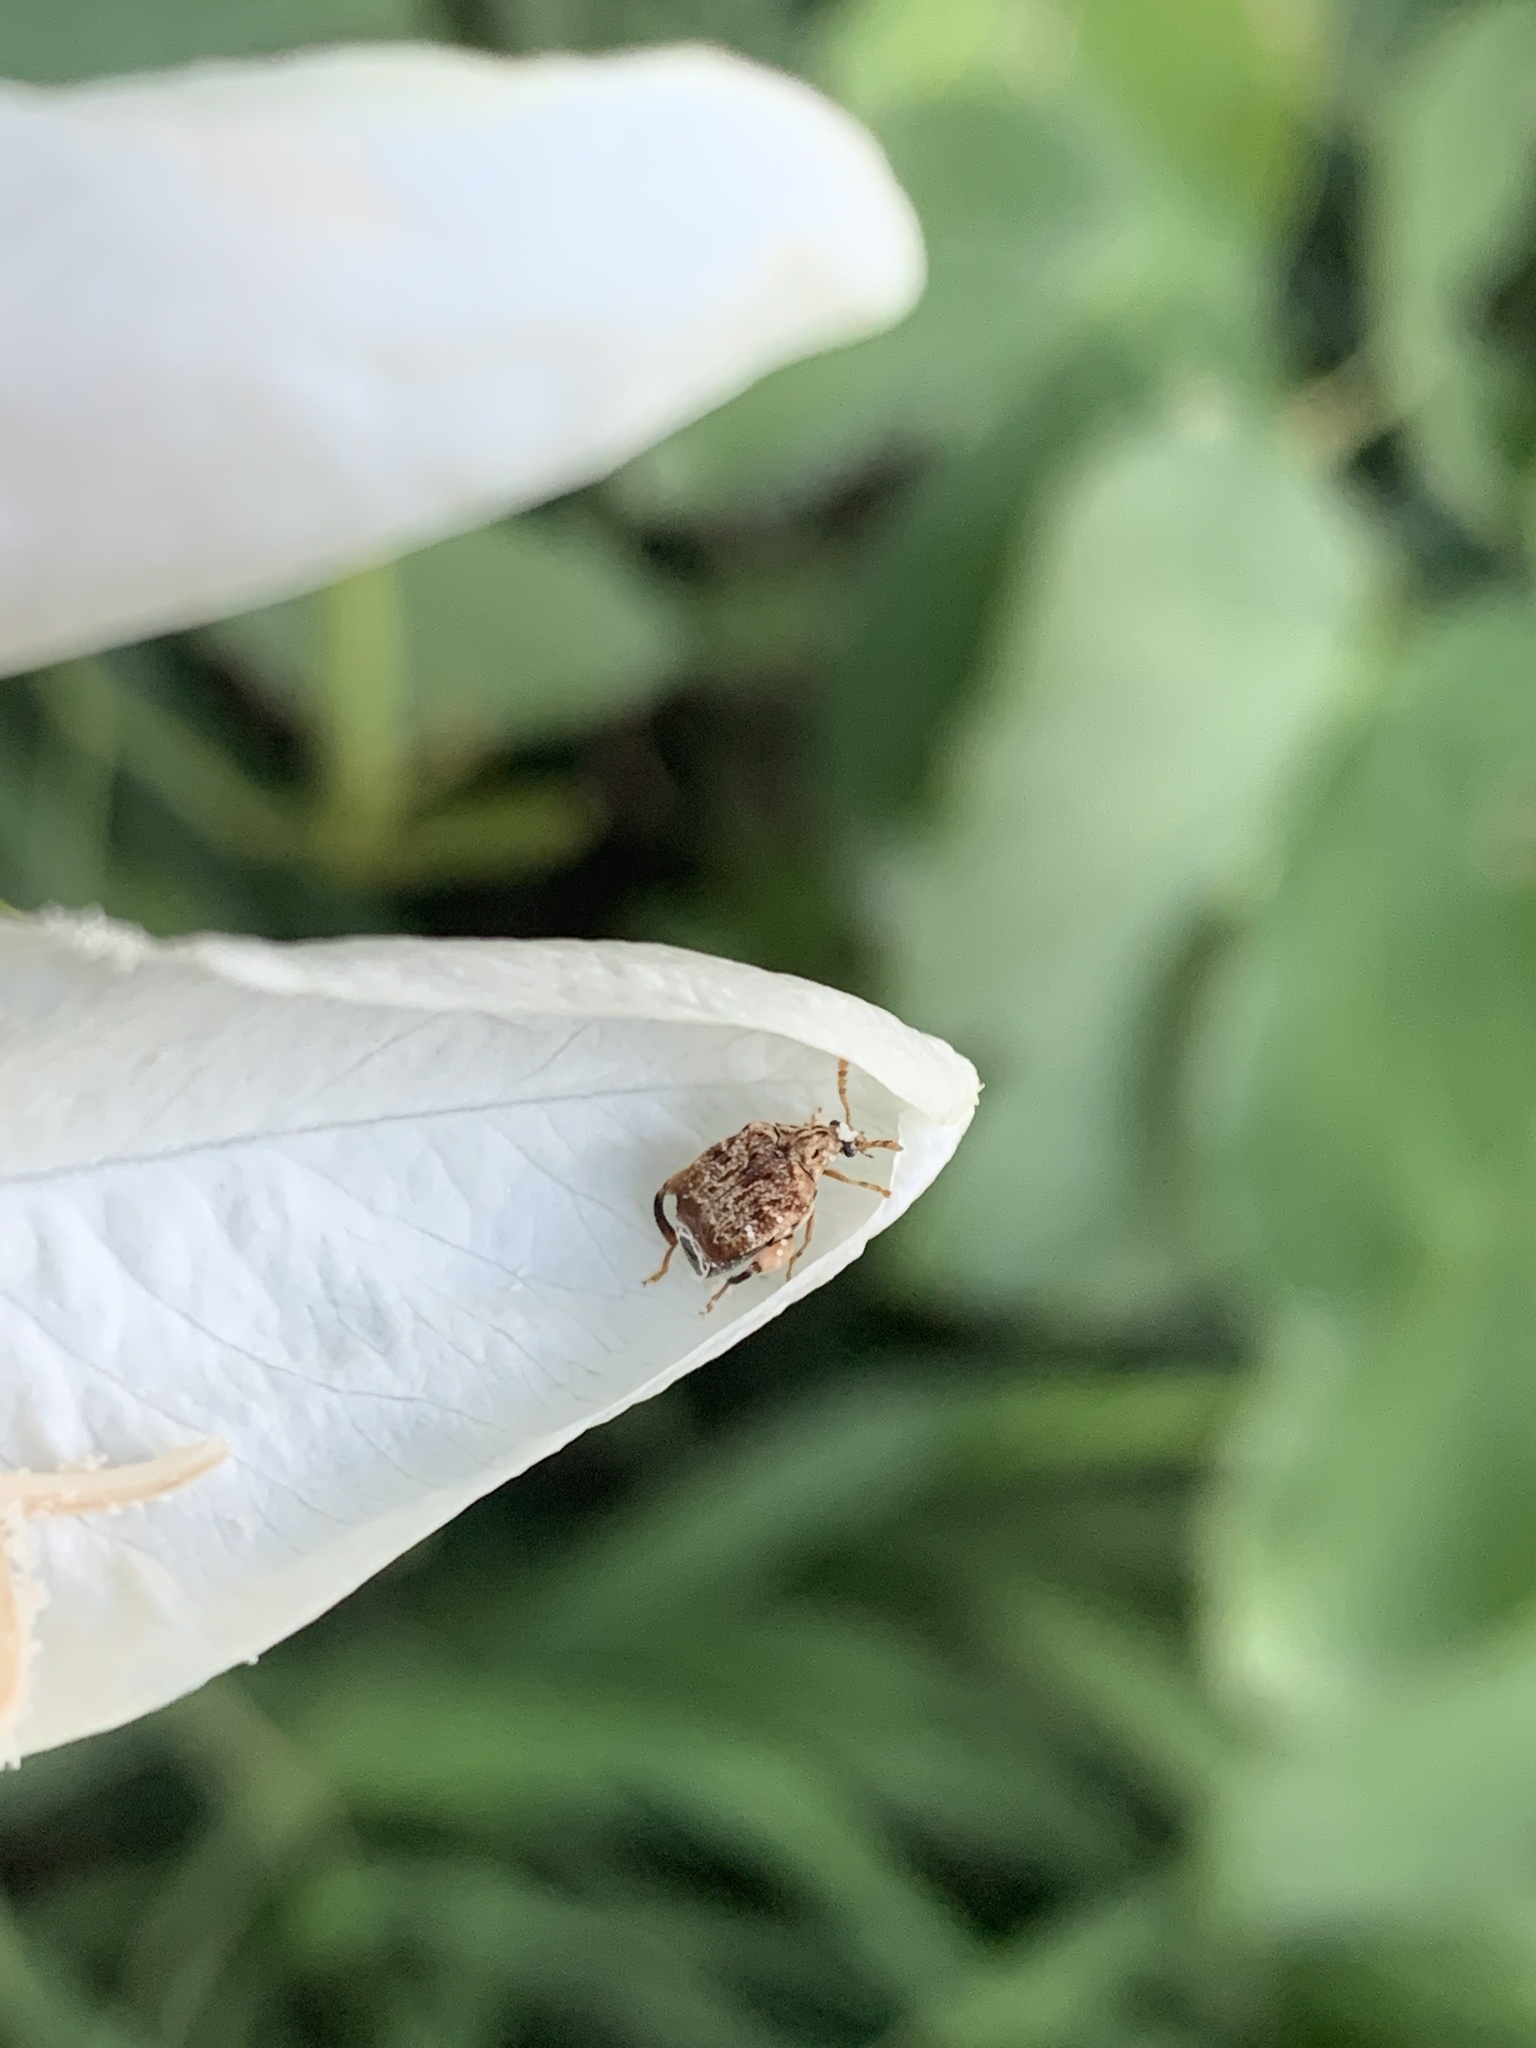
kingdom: Animalia
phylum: Arthropoda
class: Insecta
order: Coleoptera
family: Chrysomelidae
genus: Gibbobruchus
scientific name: Gibbobruchus
